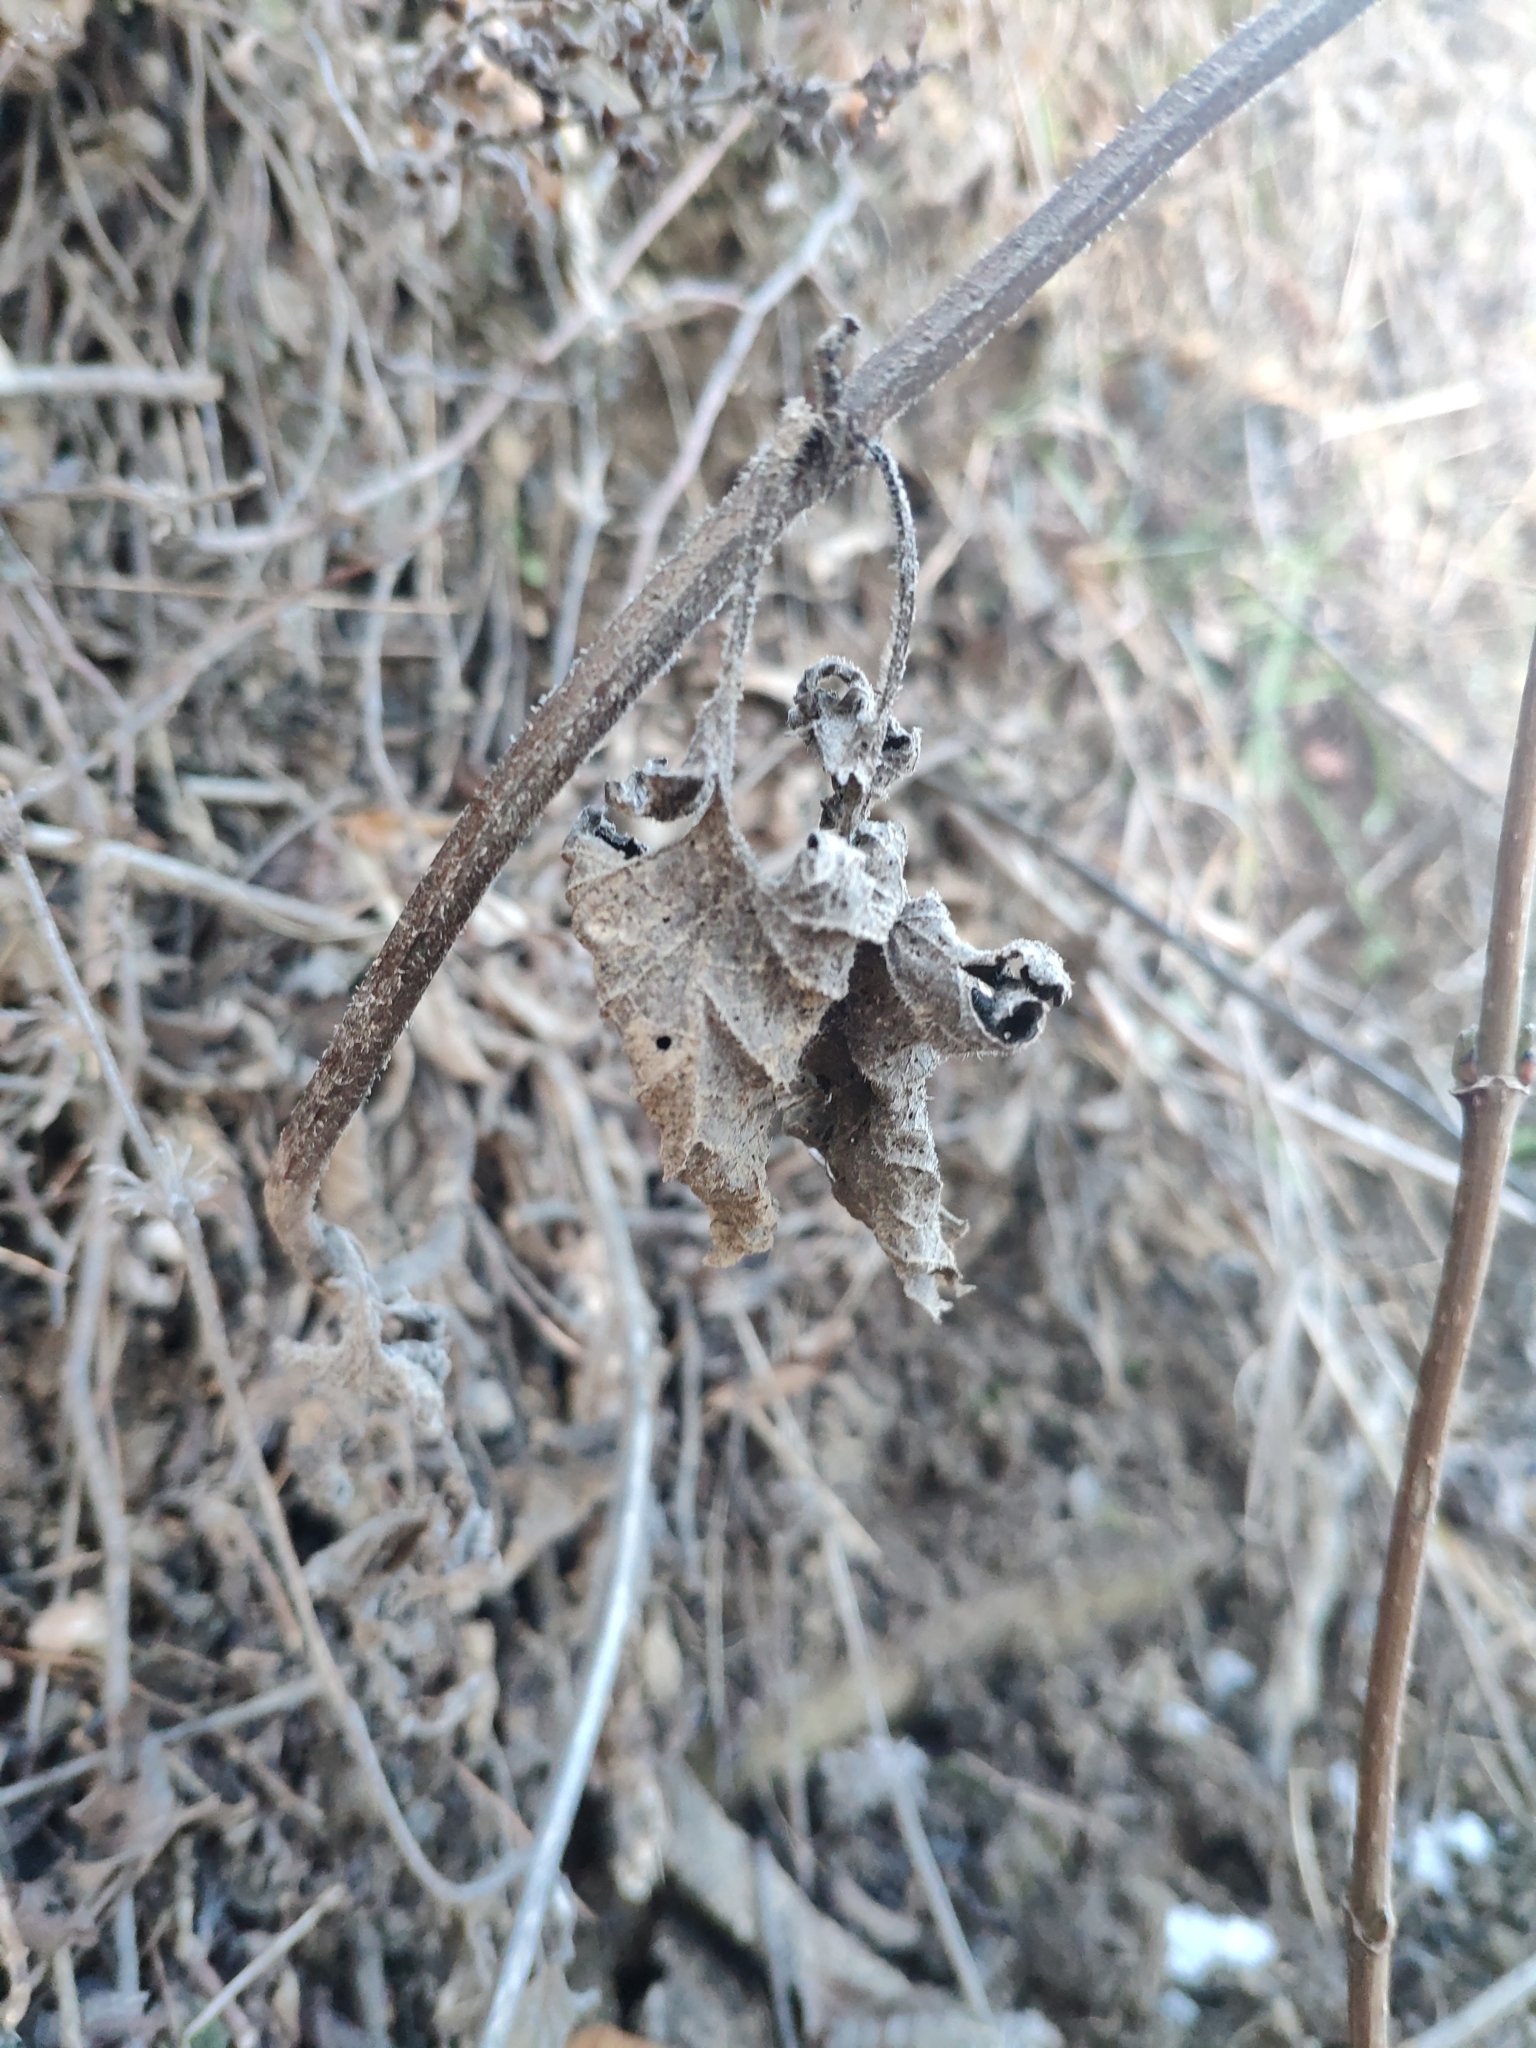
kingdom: Plantae
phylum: Tracheophyta
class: Magnoliopsida
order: Lamiales
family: Lamiaceae
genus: Salvia
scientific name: Salvia verticillata
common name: Whorled clary
